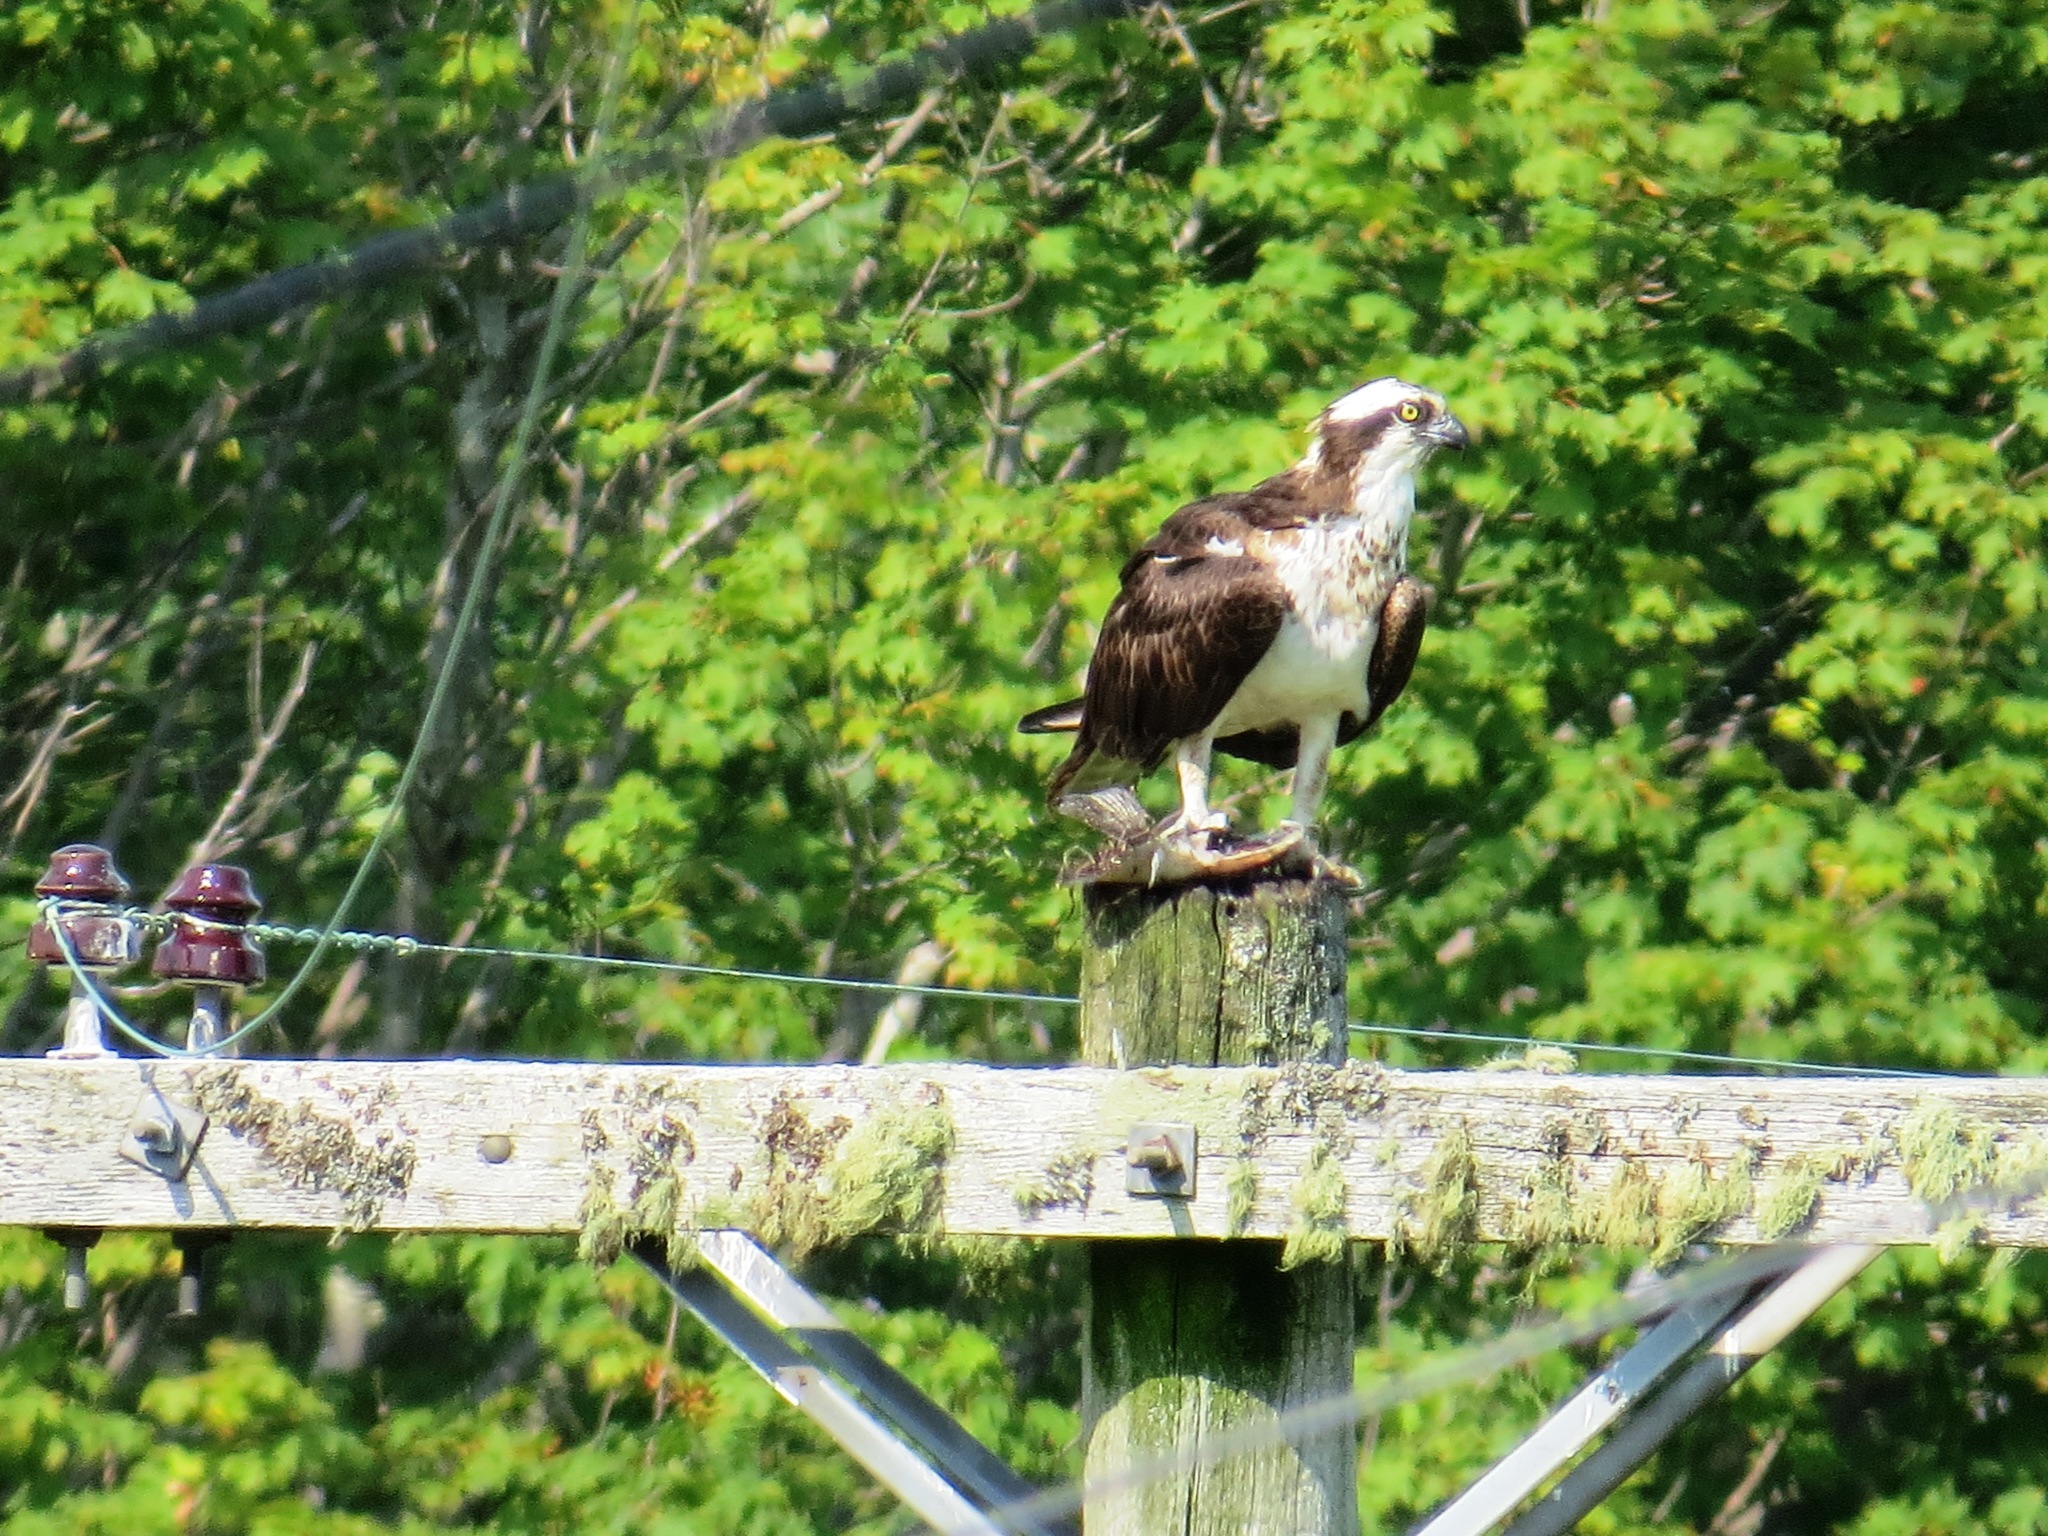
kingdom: Animalia
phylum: Chordata
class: Aves
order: Accipitriformes
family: Pandionidae
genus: Pandion
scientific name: Pandion haliaetus
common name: Osprey
